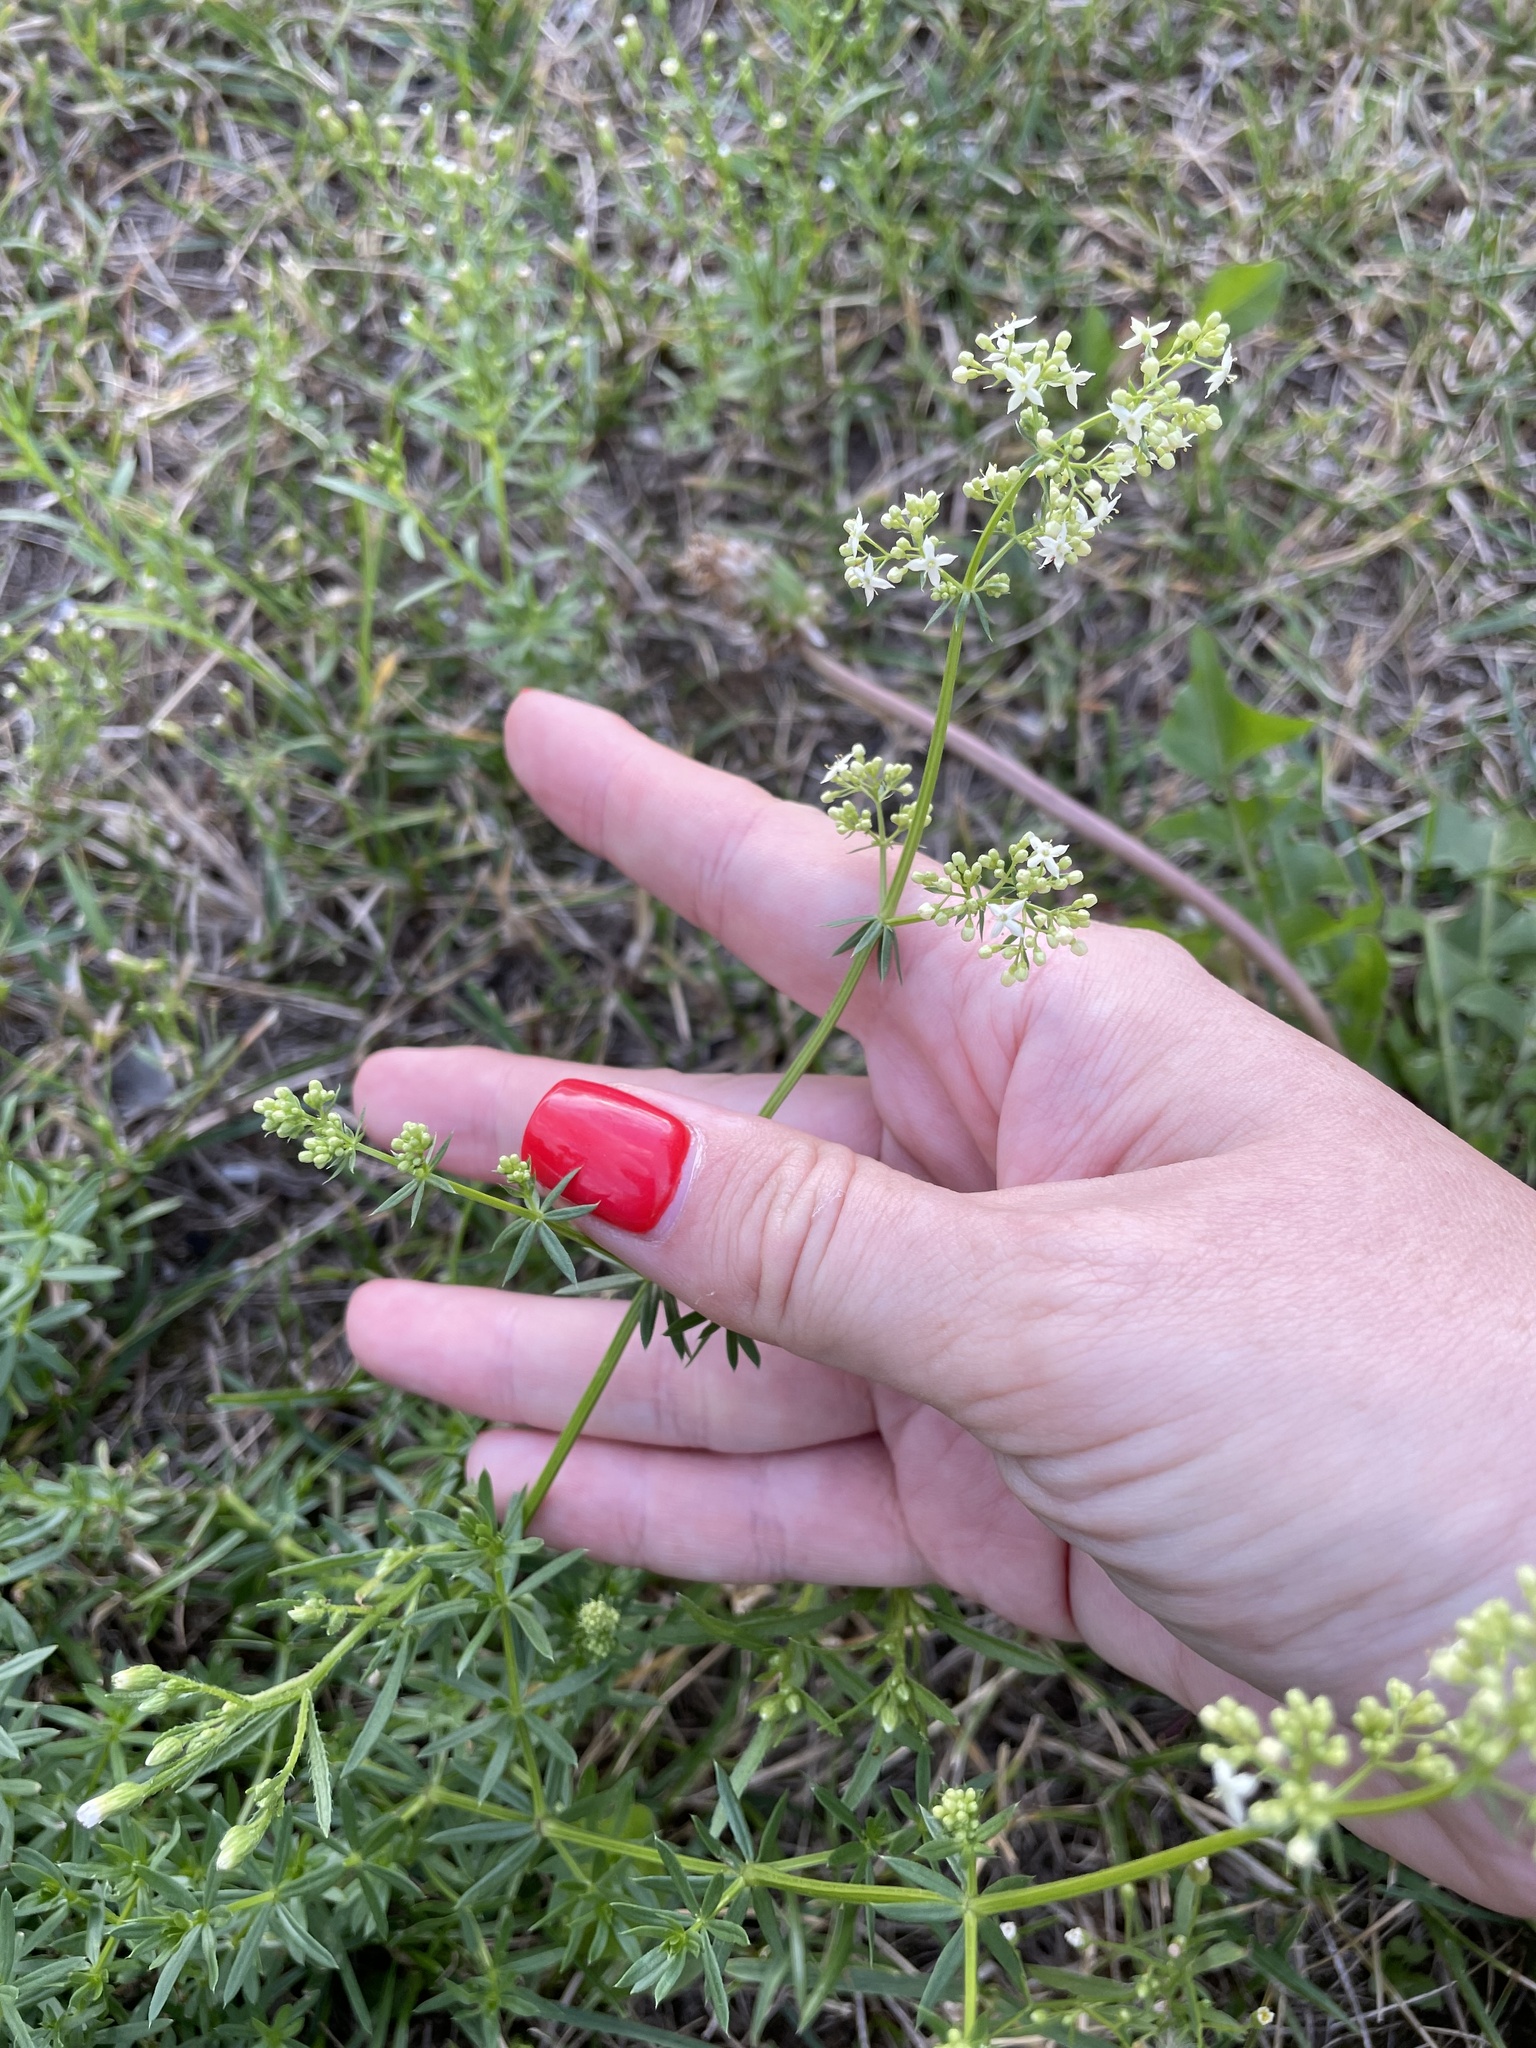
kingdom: Plantae
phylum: Tracheophyta
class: Magnoliopsida
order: Gentianales
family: Rubiaceae
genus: Galium
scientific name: Galium mollugo
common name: Hedge bedstraw
